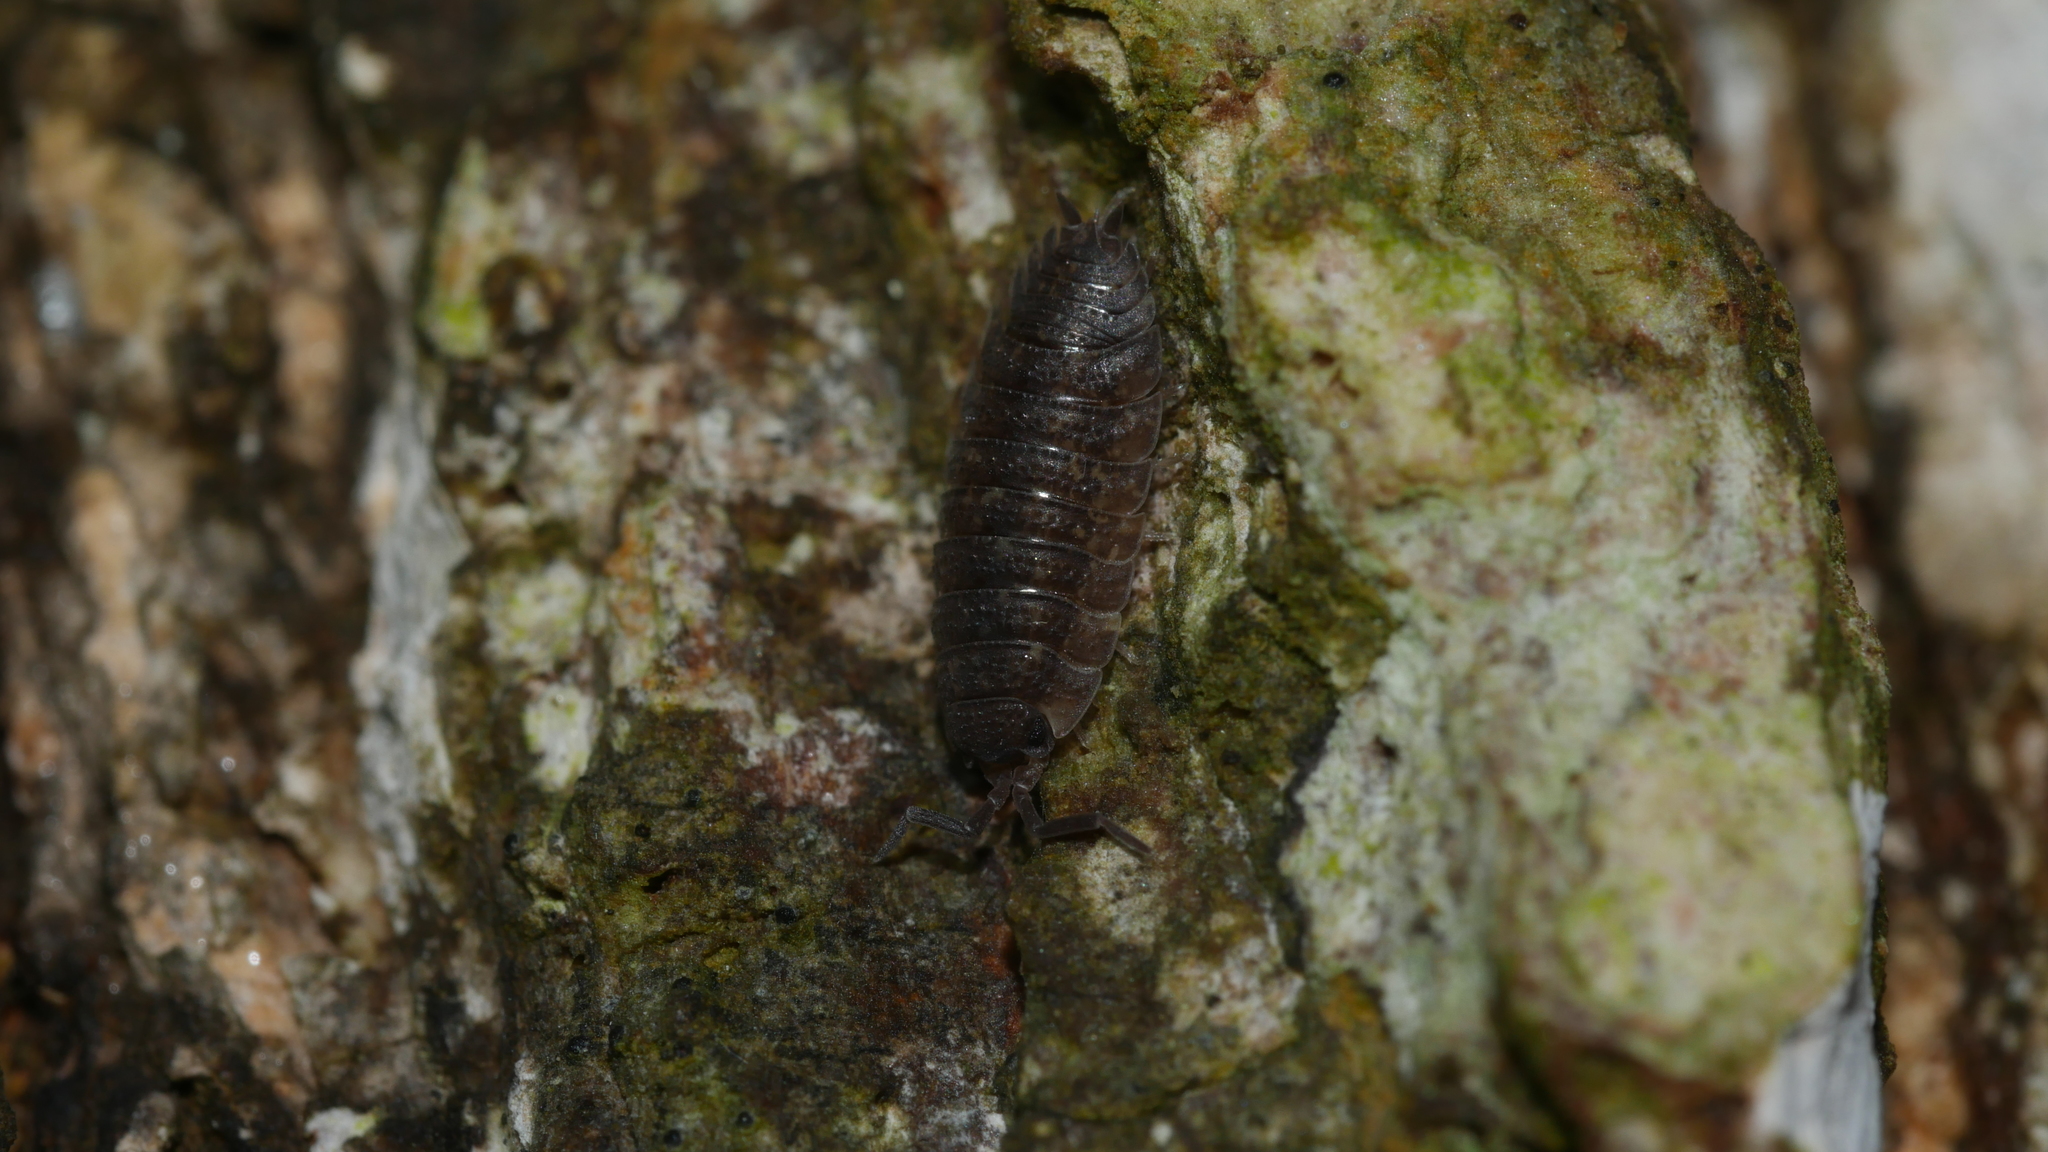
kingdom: Animalia
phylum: Arthropoda
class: Malacostraca
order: Isopoda
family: Porcellionidae
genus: Porcellio
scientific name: Porcellio scaber
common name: Common rough woodlouse
